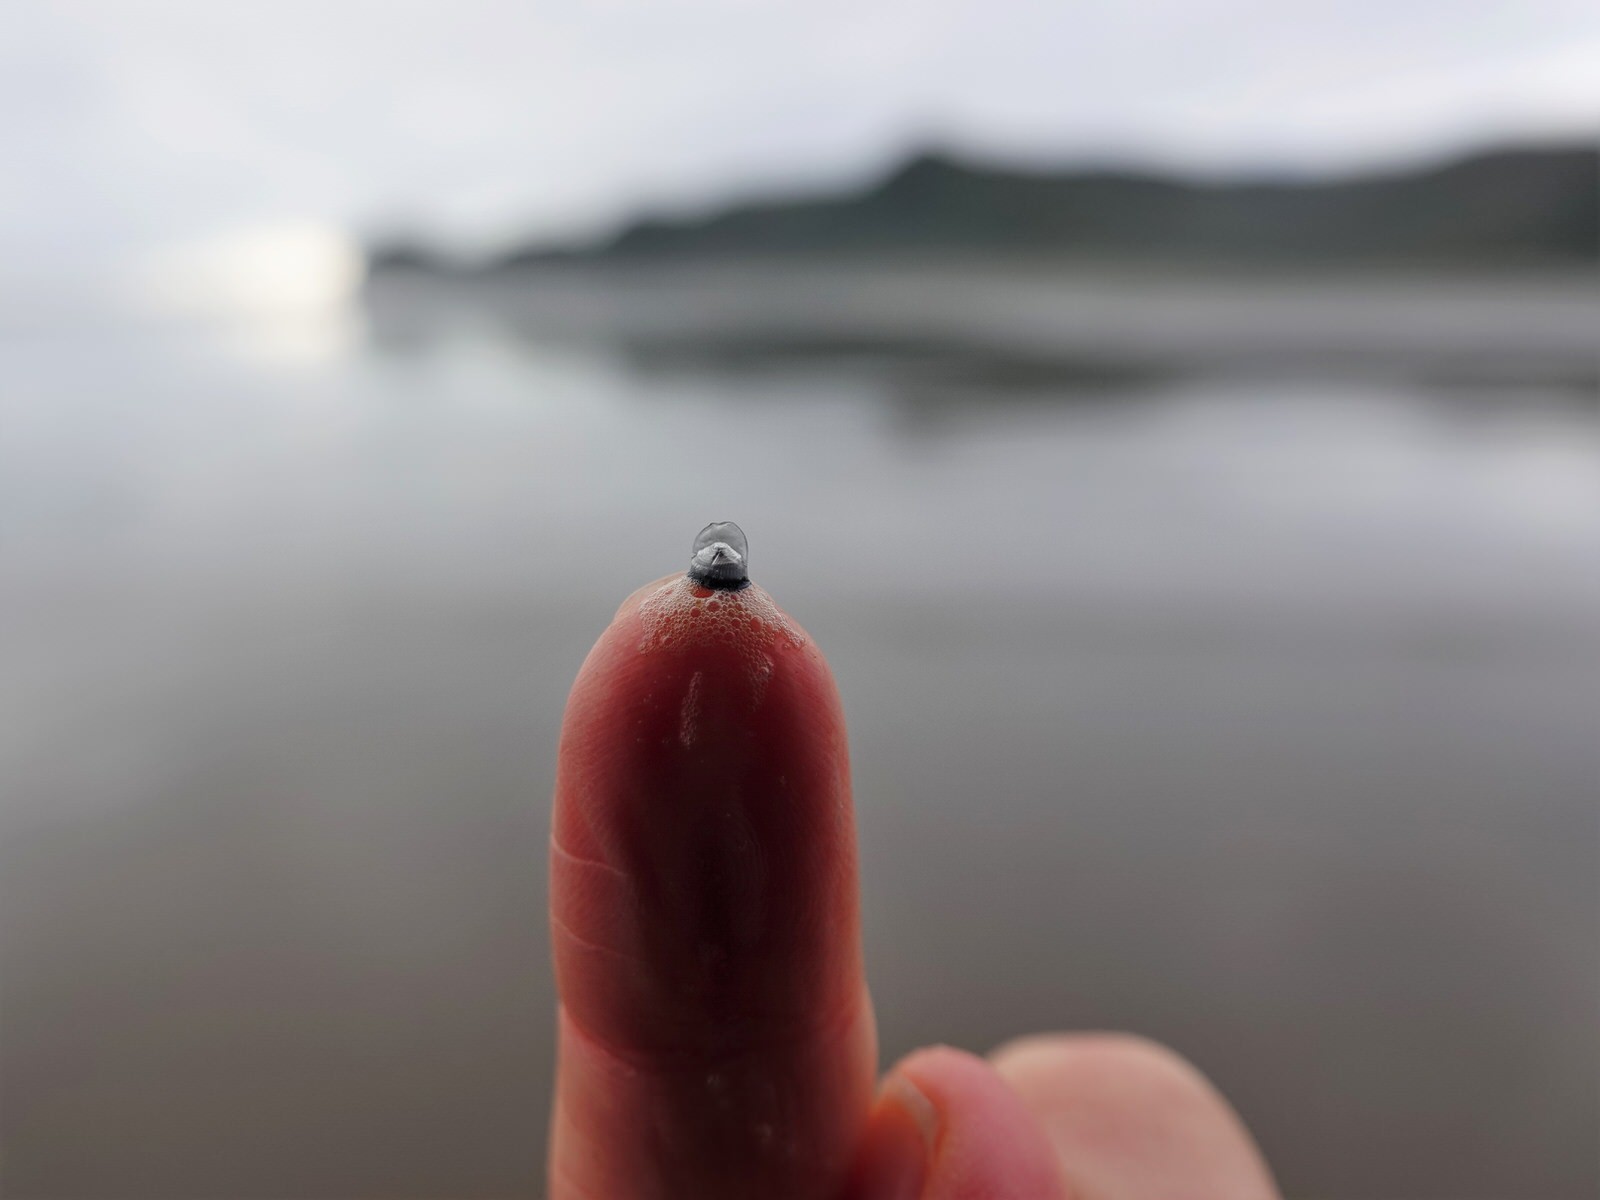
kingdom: Animalia
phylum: Cnidaria
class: Hydrozoa
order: Anthoathecata
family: Porpitidae
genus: Velella
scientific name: Velella velella
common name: By-the-wind-sailor
